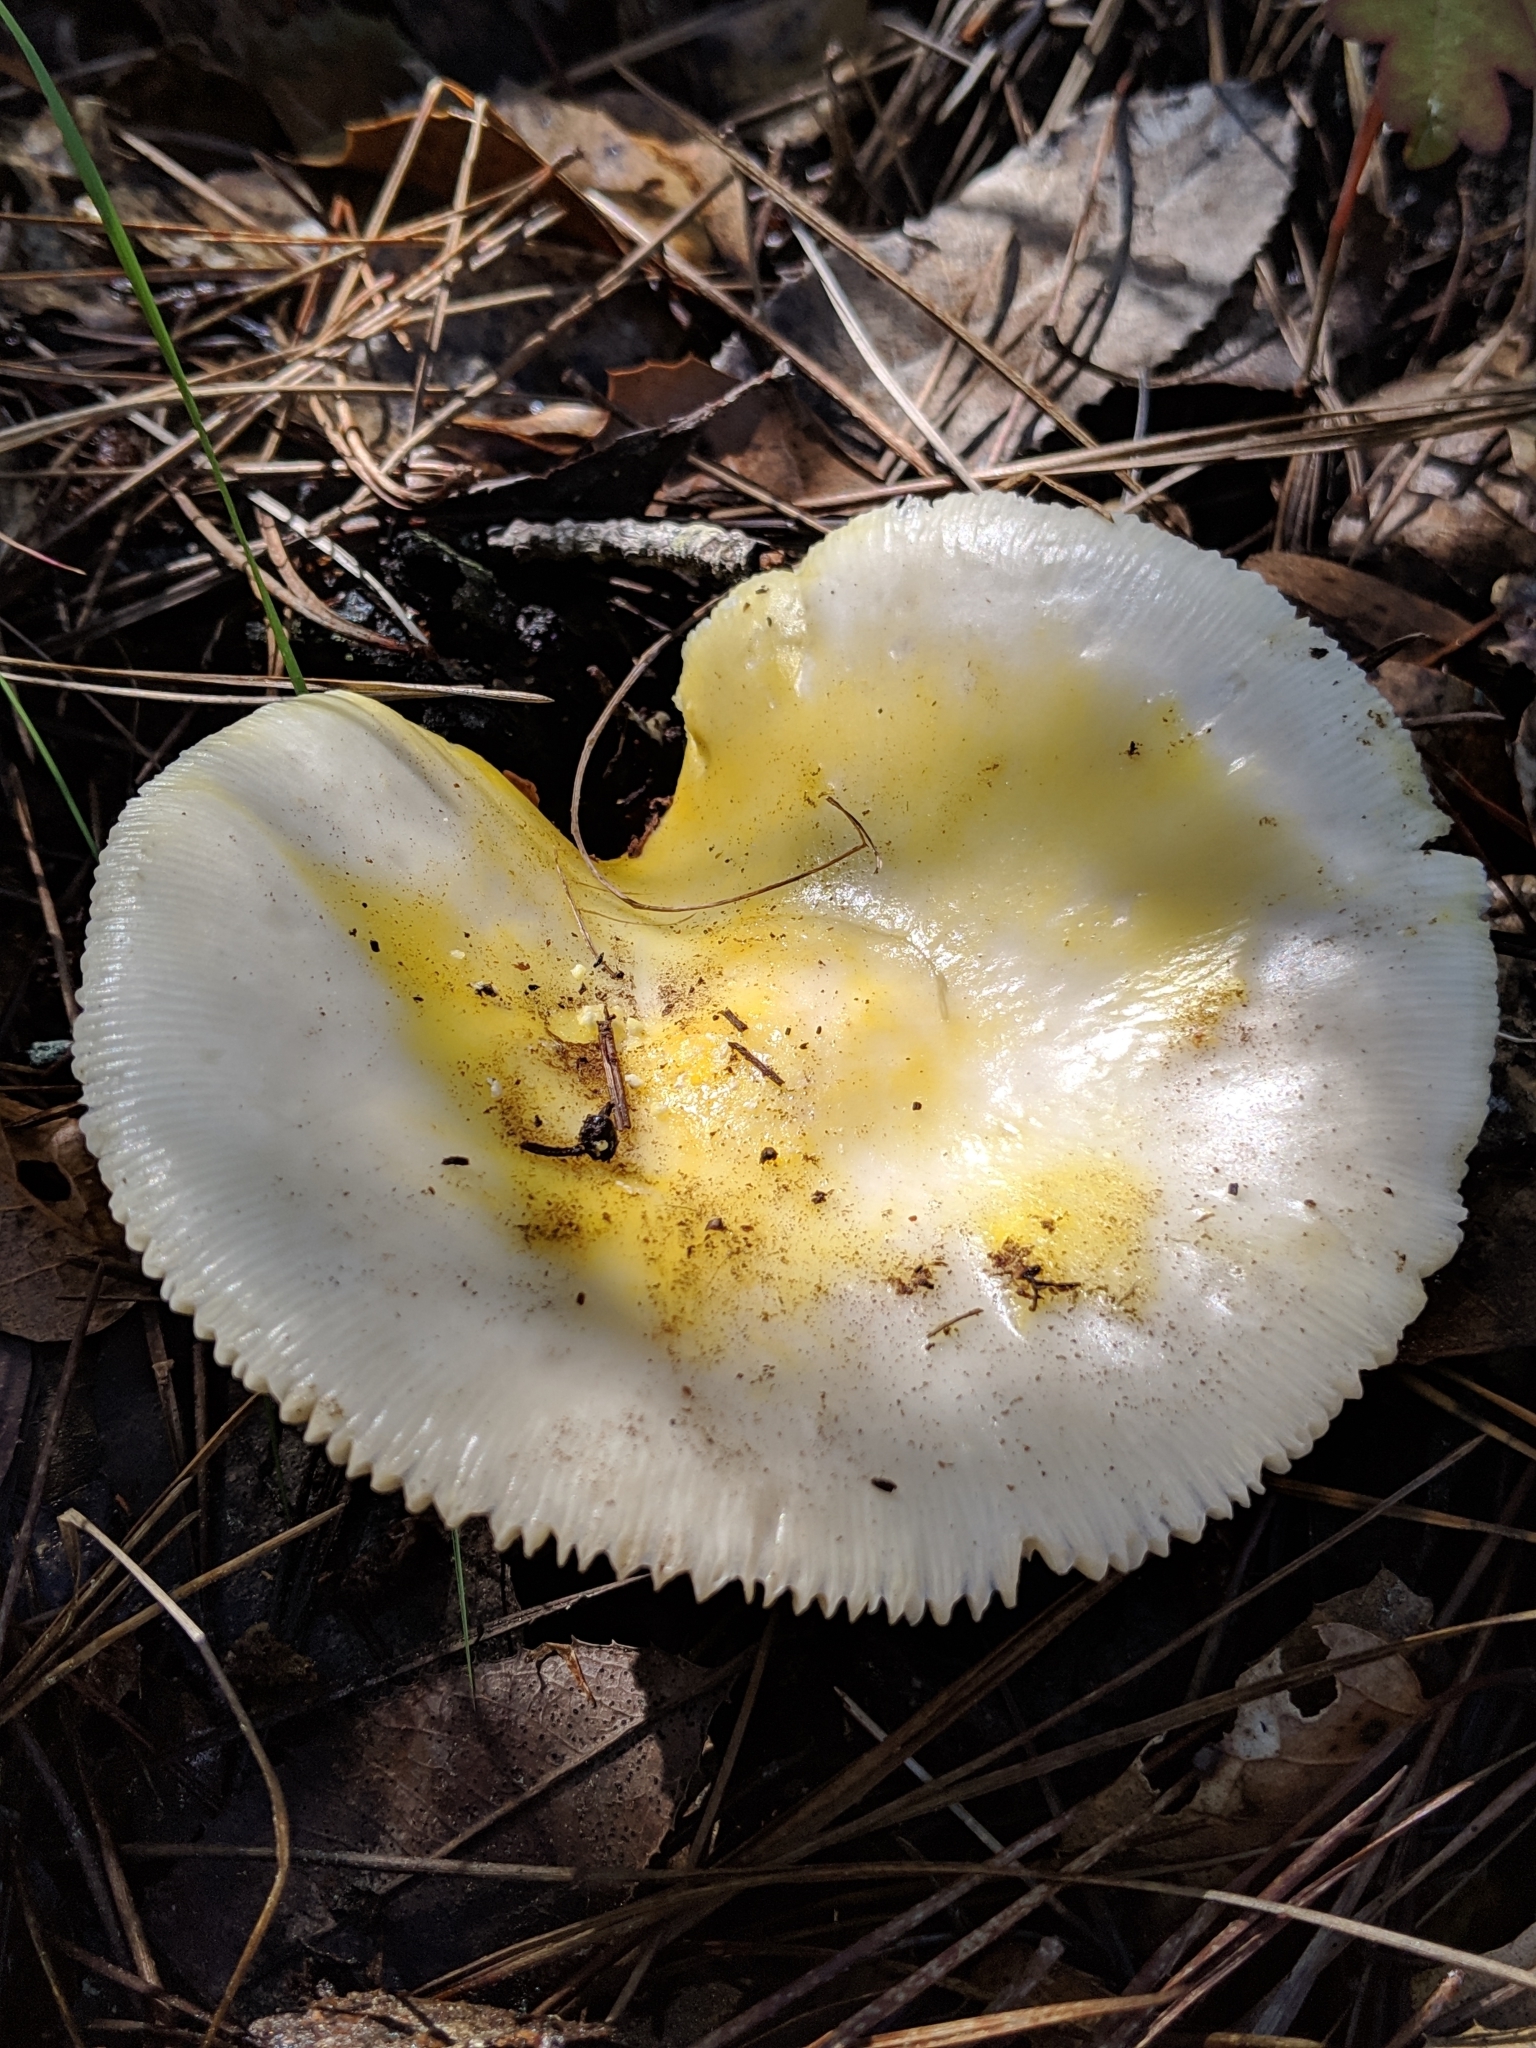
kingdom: Fungi
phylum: Basidiomycota
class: Agaricomycetes
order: Agaricales
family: Amanitaceae
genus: Amanita
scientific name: Amanita augusta
